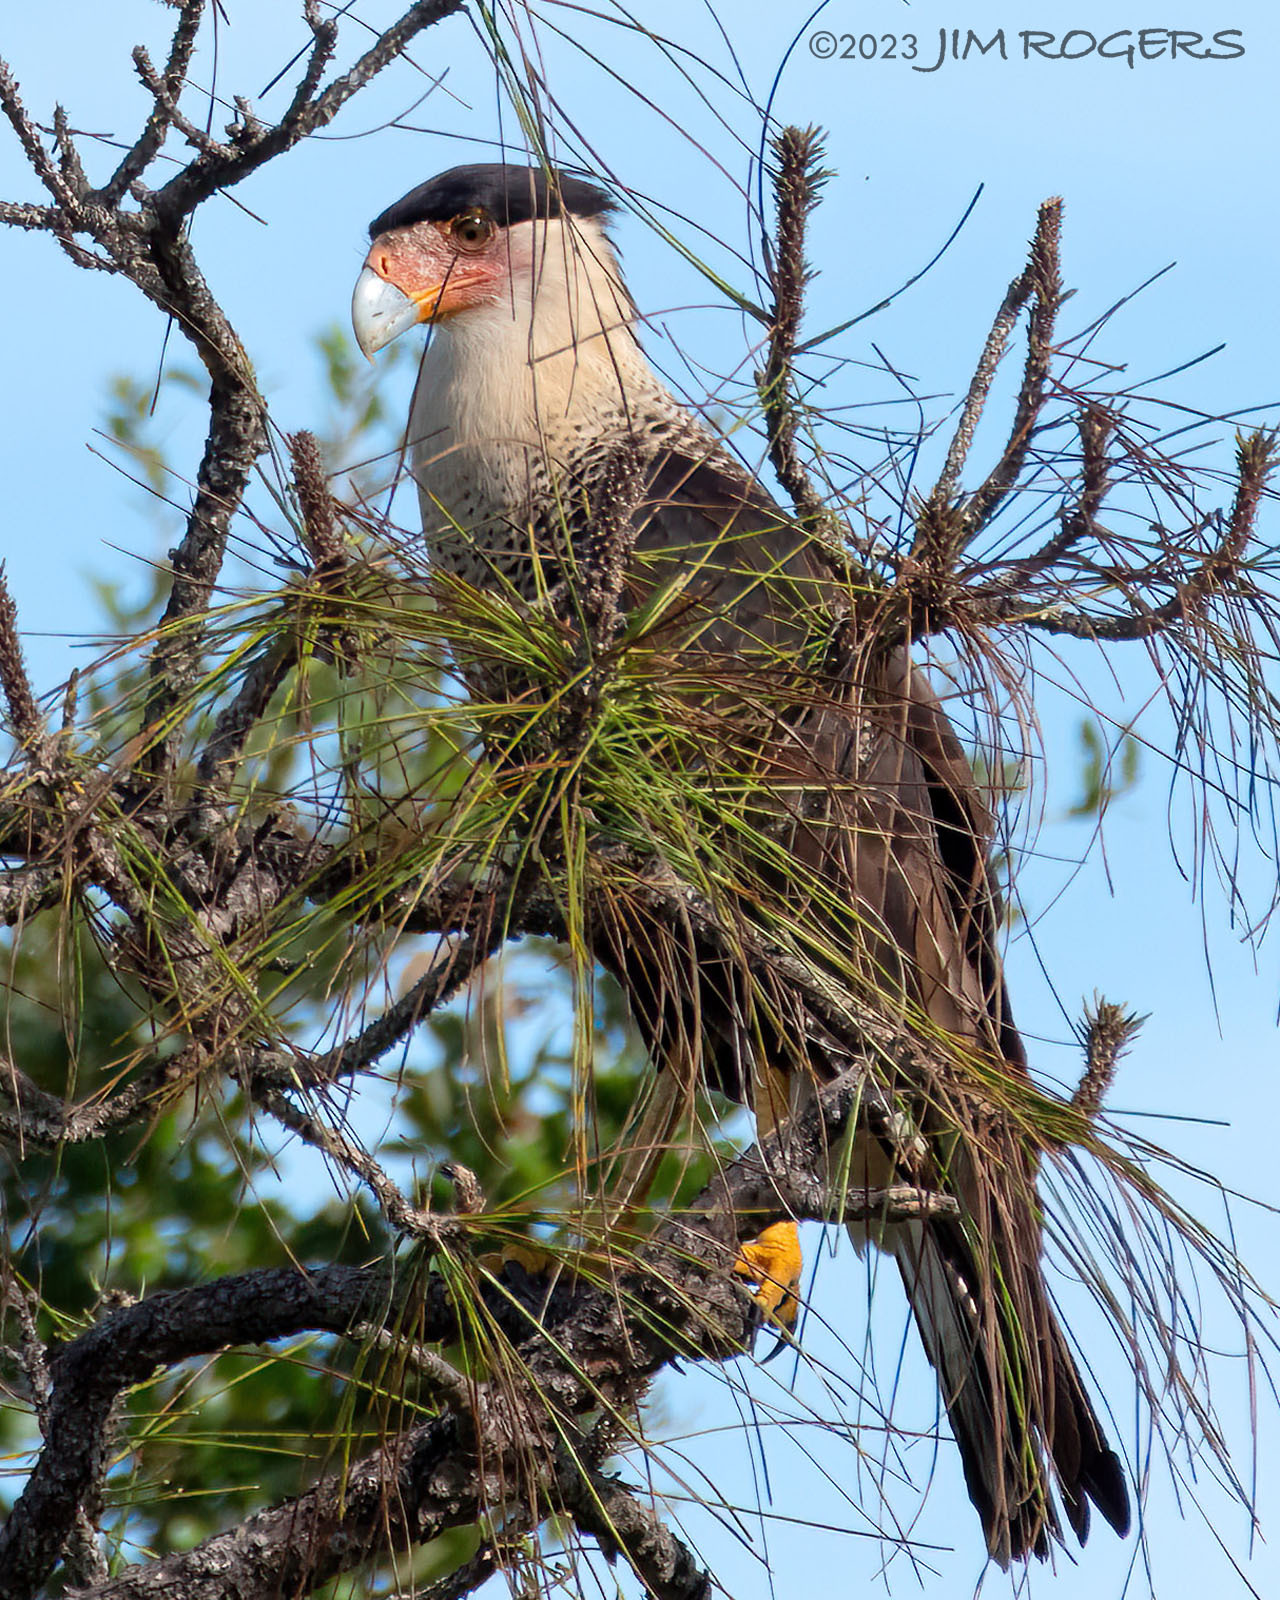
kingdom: Animalia
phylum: Chordata
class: Aves
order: Falconiformes
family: Falconidae
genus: Caracara
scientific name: Caracara plancus
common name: Southern caracara
